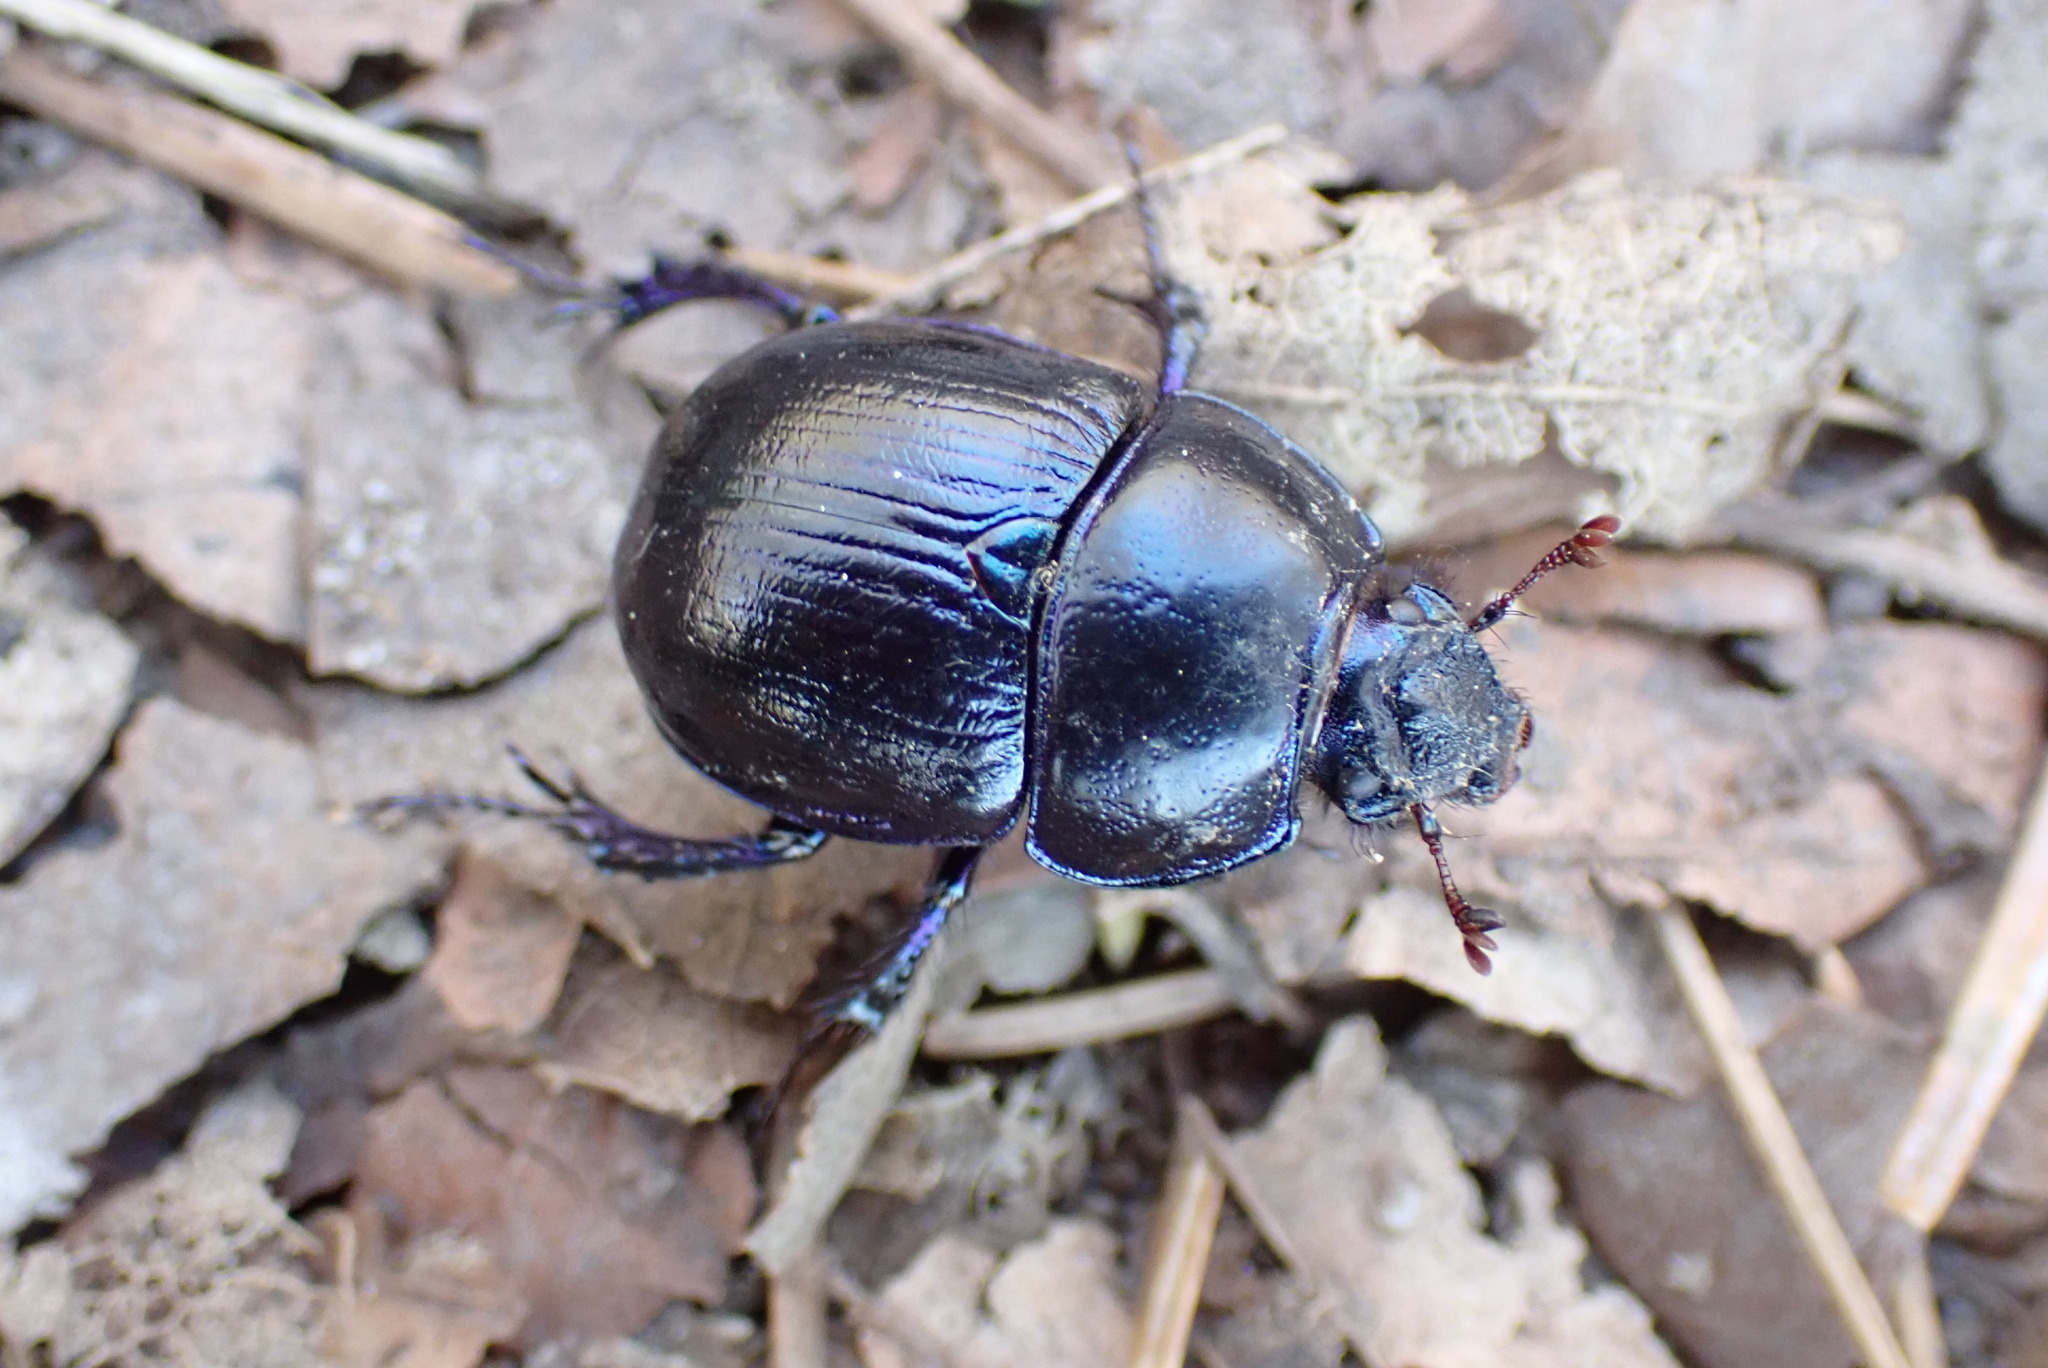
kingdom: Animalia
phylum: Arthropoda
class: Insecta
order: Coleoptera
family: Geotrupidae
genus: Anoplotrupes
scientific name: Anoplotrupes stercorosus
